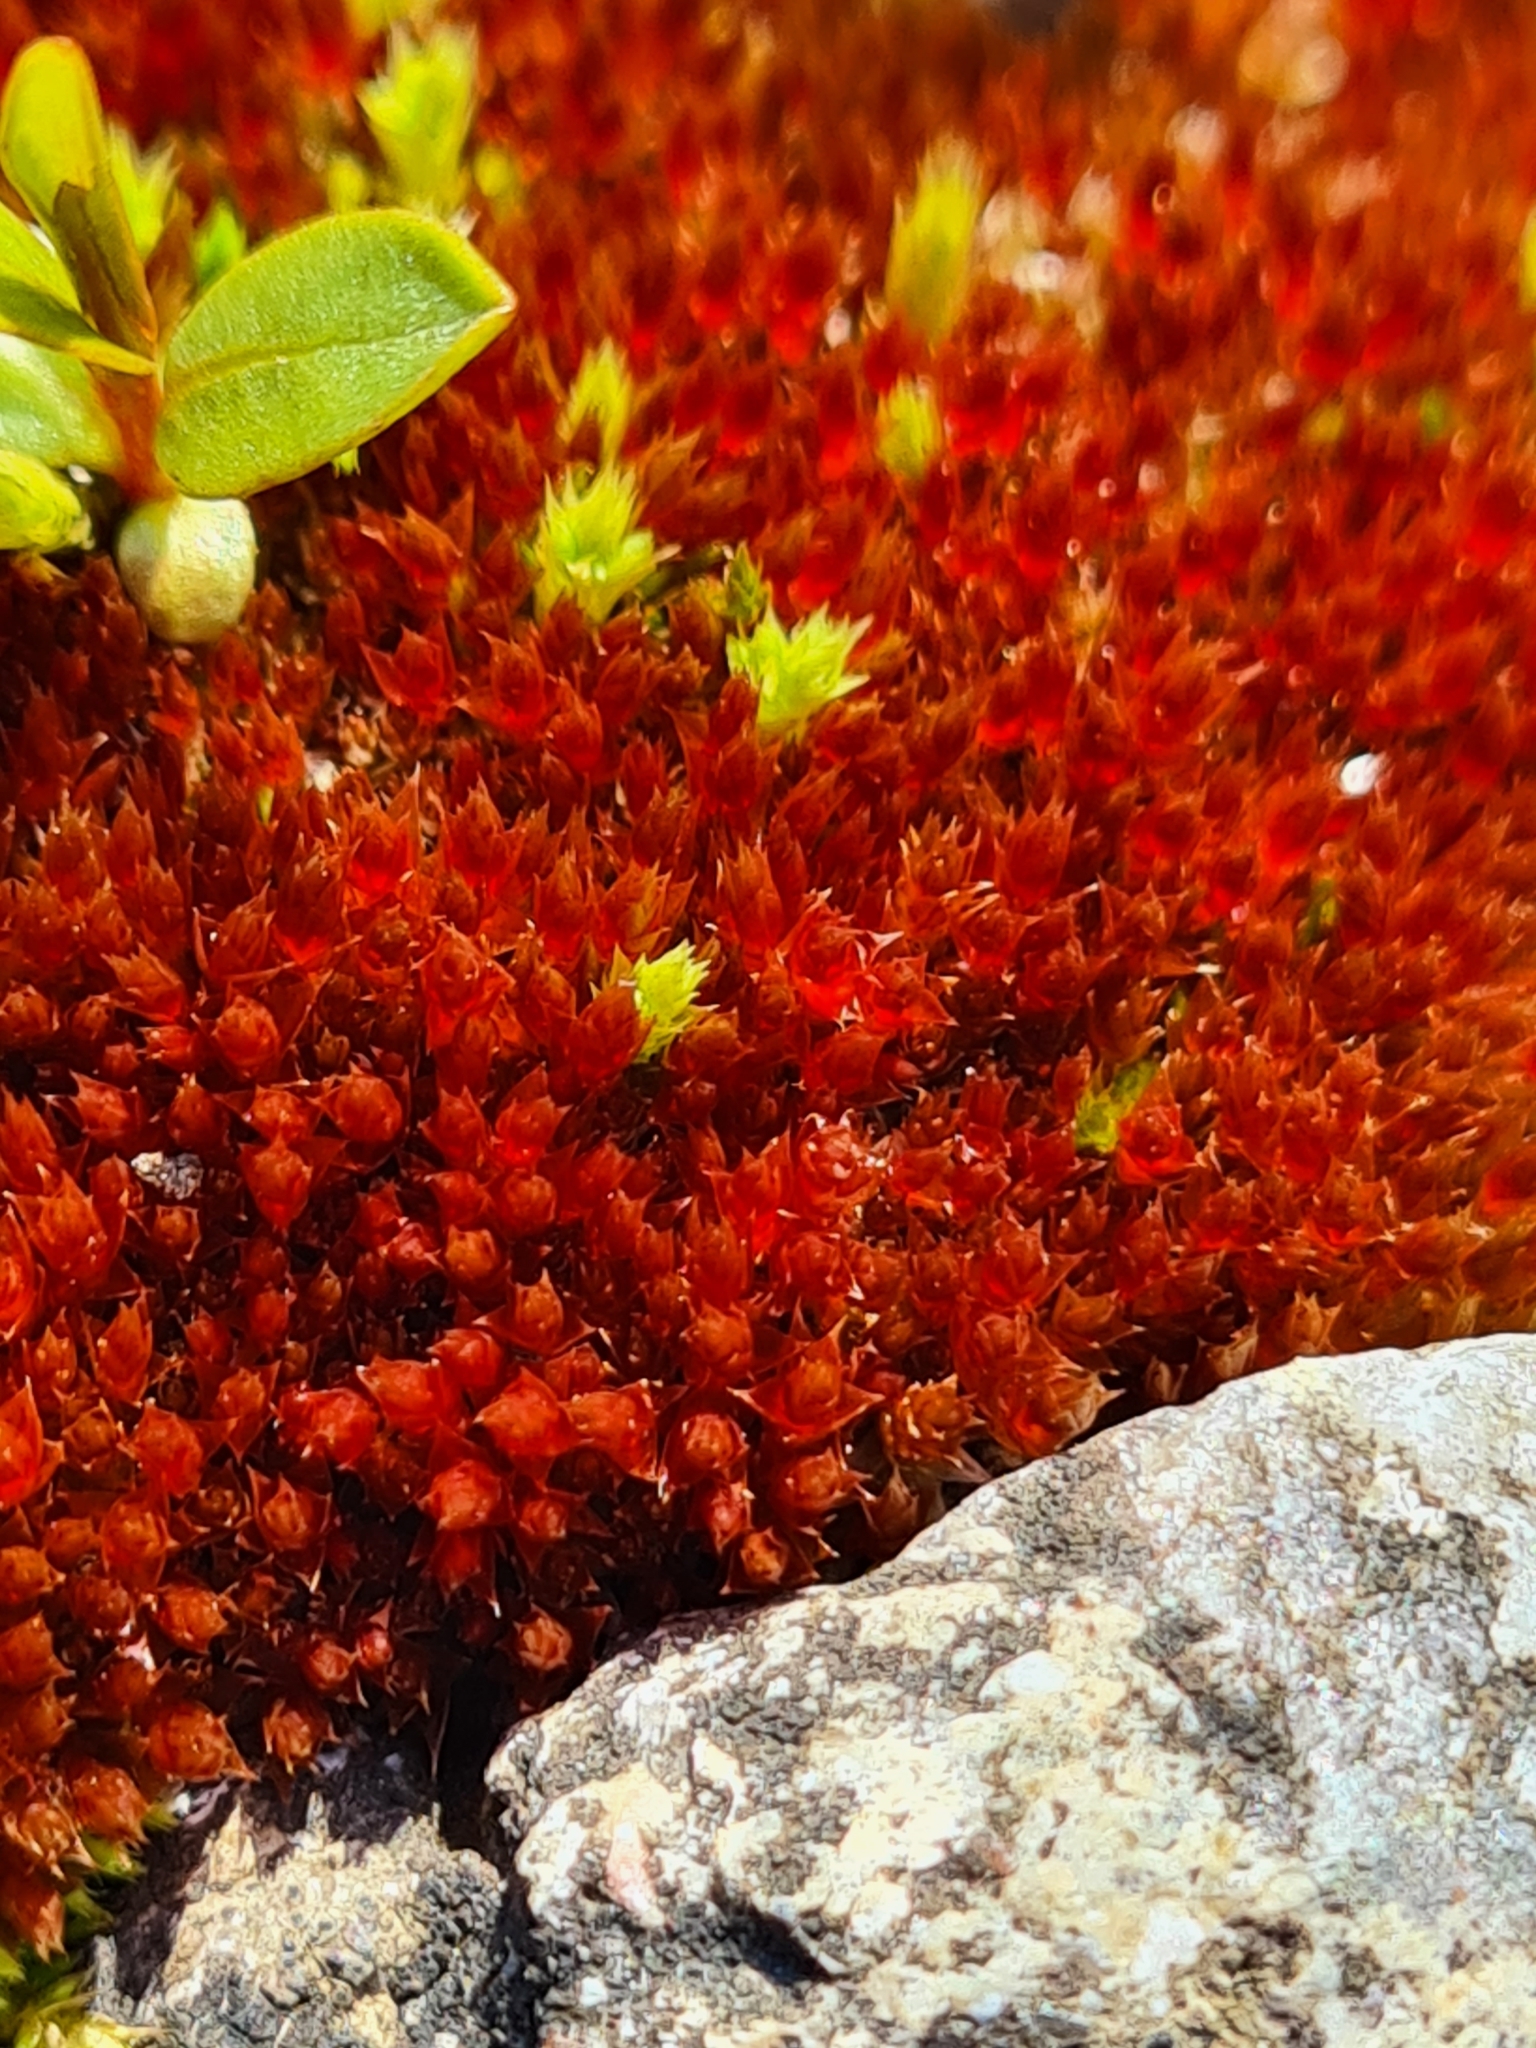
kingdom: Plantae
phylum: Bryophyta
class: Bryopsida
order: Bryales
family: Bryaceae
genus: Ptychostomum
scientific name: Ptychostomum pallens
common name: Pale thread-moss
